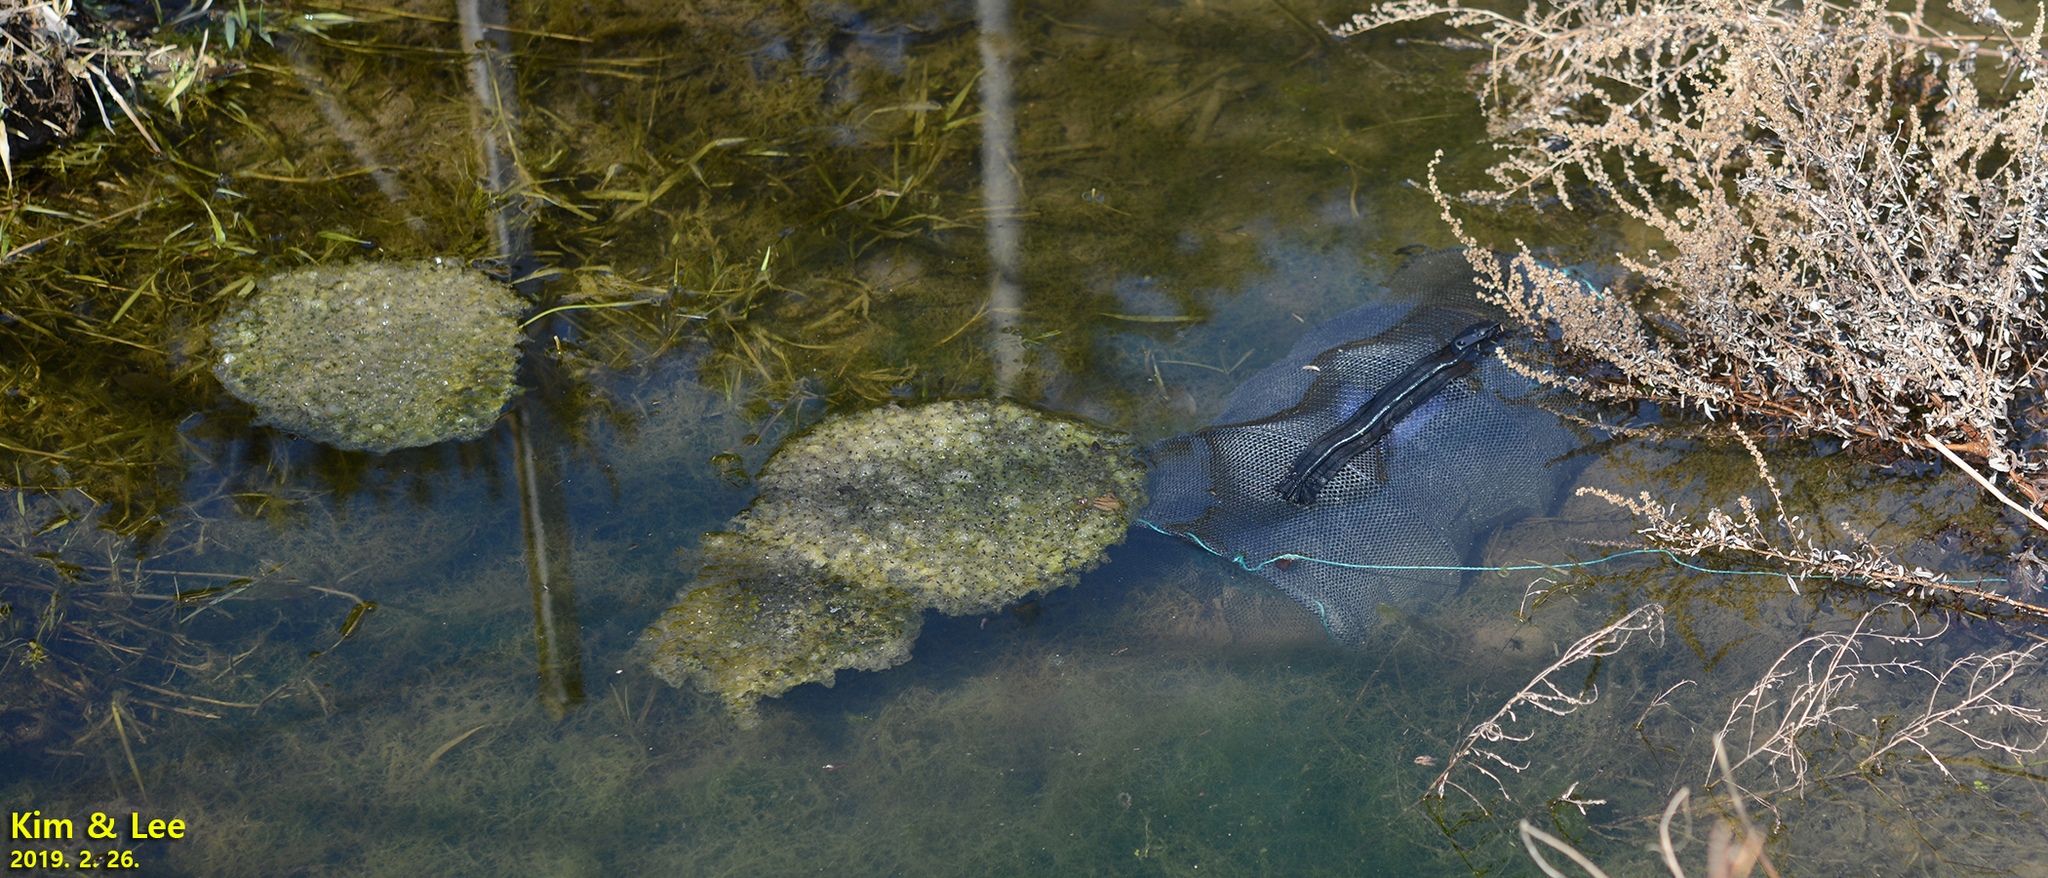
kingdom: Animalia
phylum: Chordata
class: Amphibia
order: Anura
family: Ranidae
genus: Rana
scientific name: Rana uenoi
